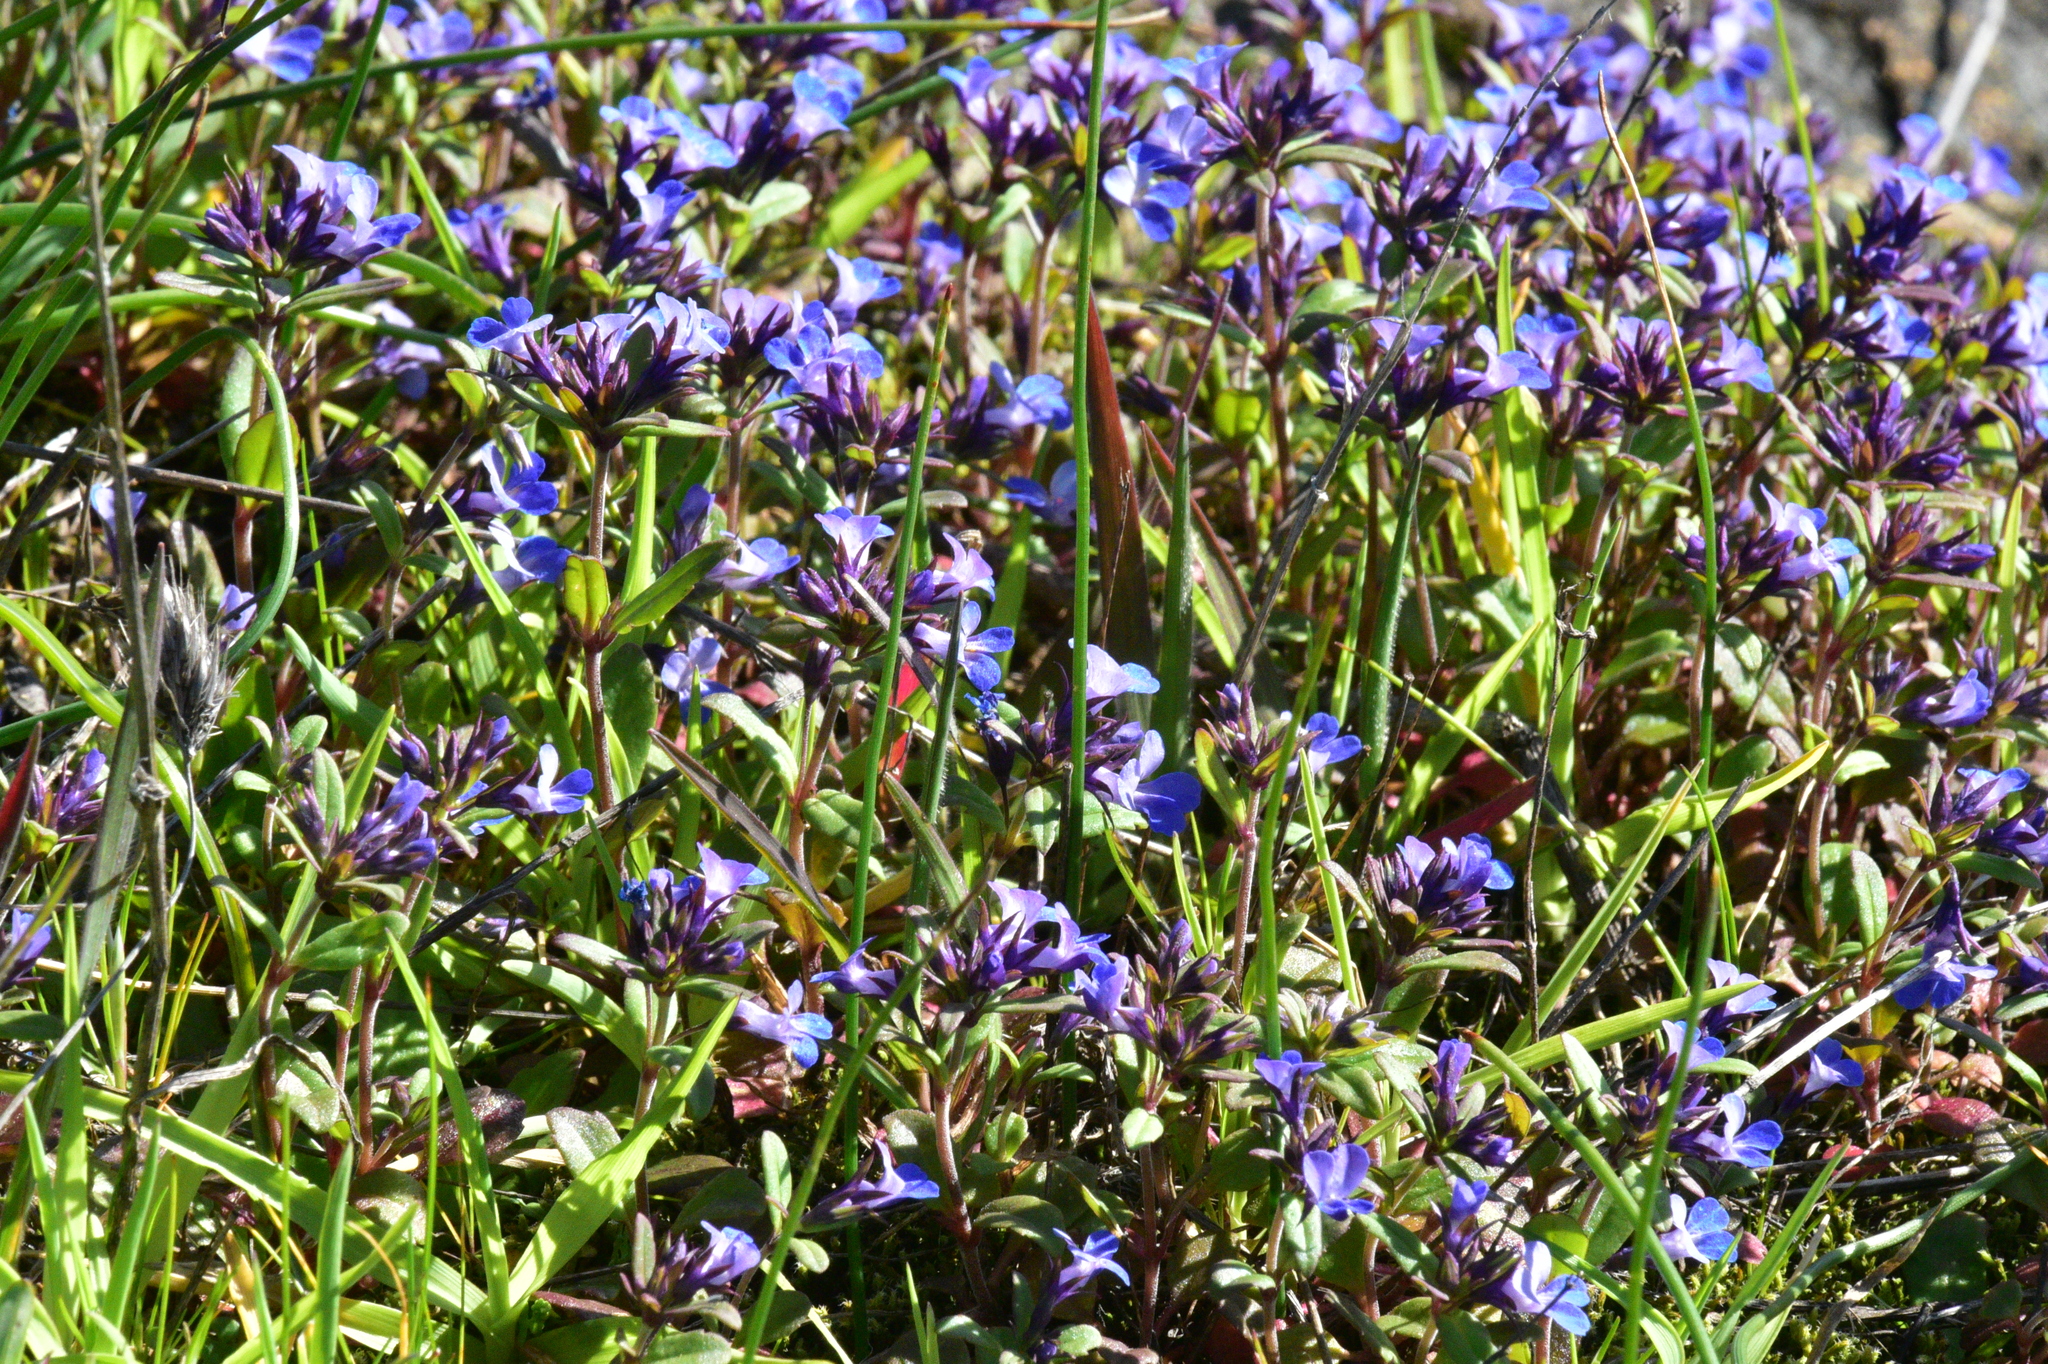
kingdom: Plantae
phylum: Tracheophyta
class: Magnoliopsida
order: Lamiales
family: Plantaginaceae
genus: Collinsia
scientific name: Collinsia parviflora
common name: Blue-lips
